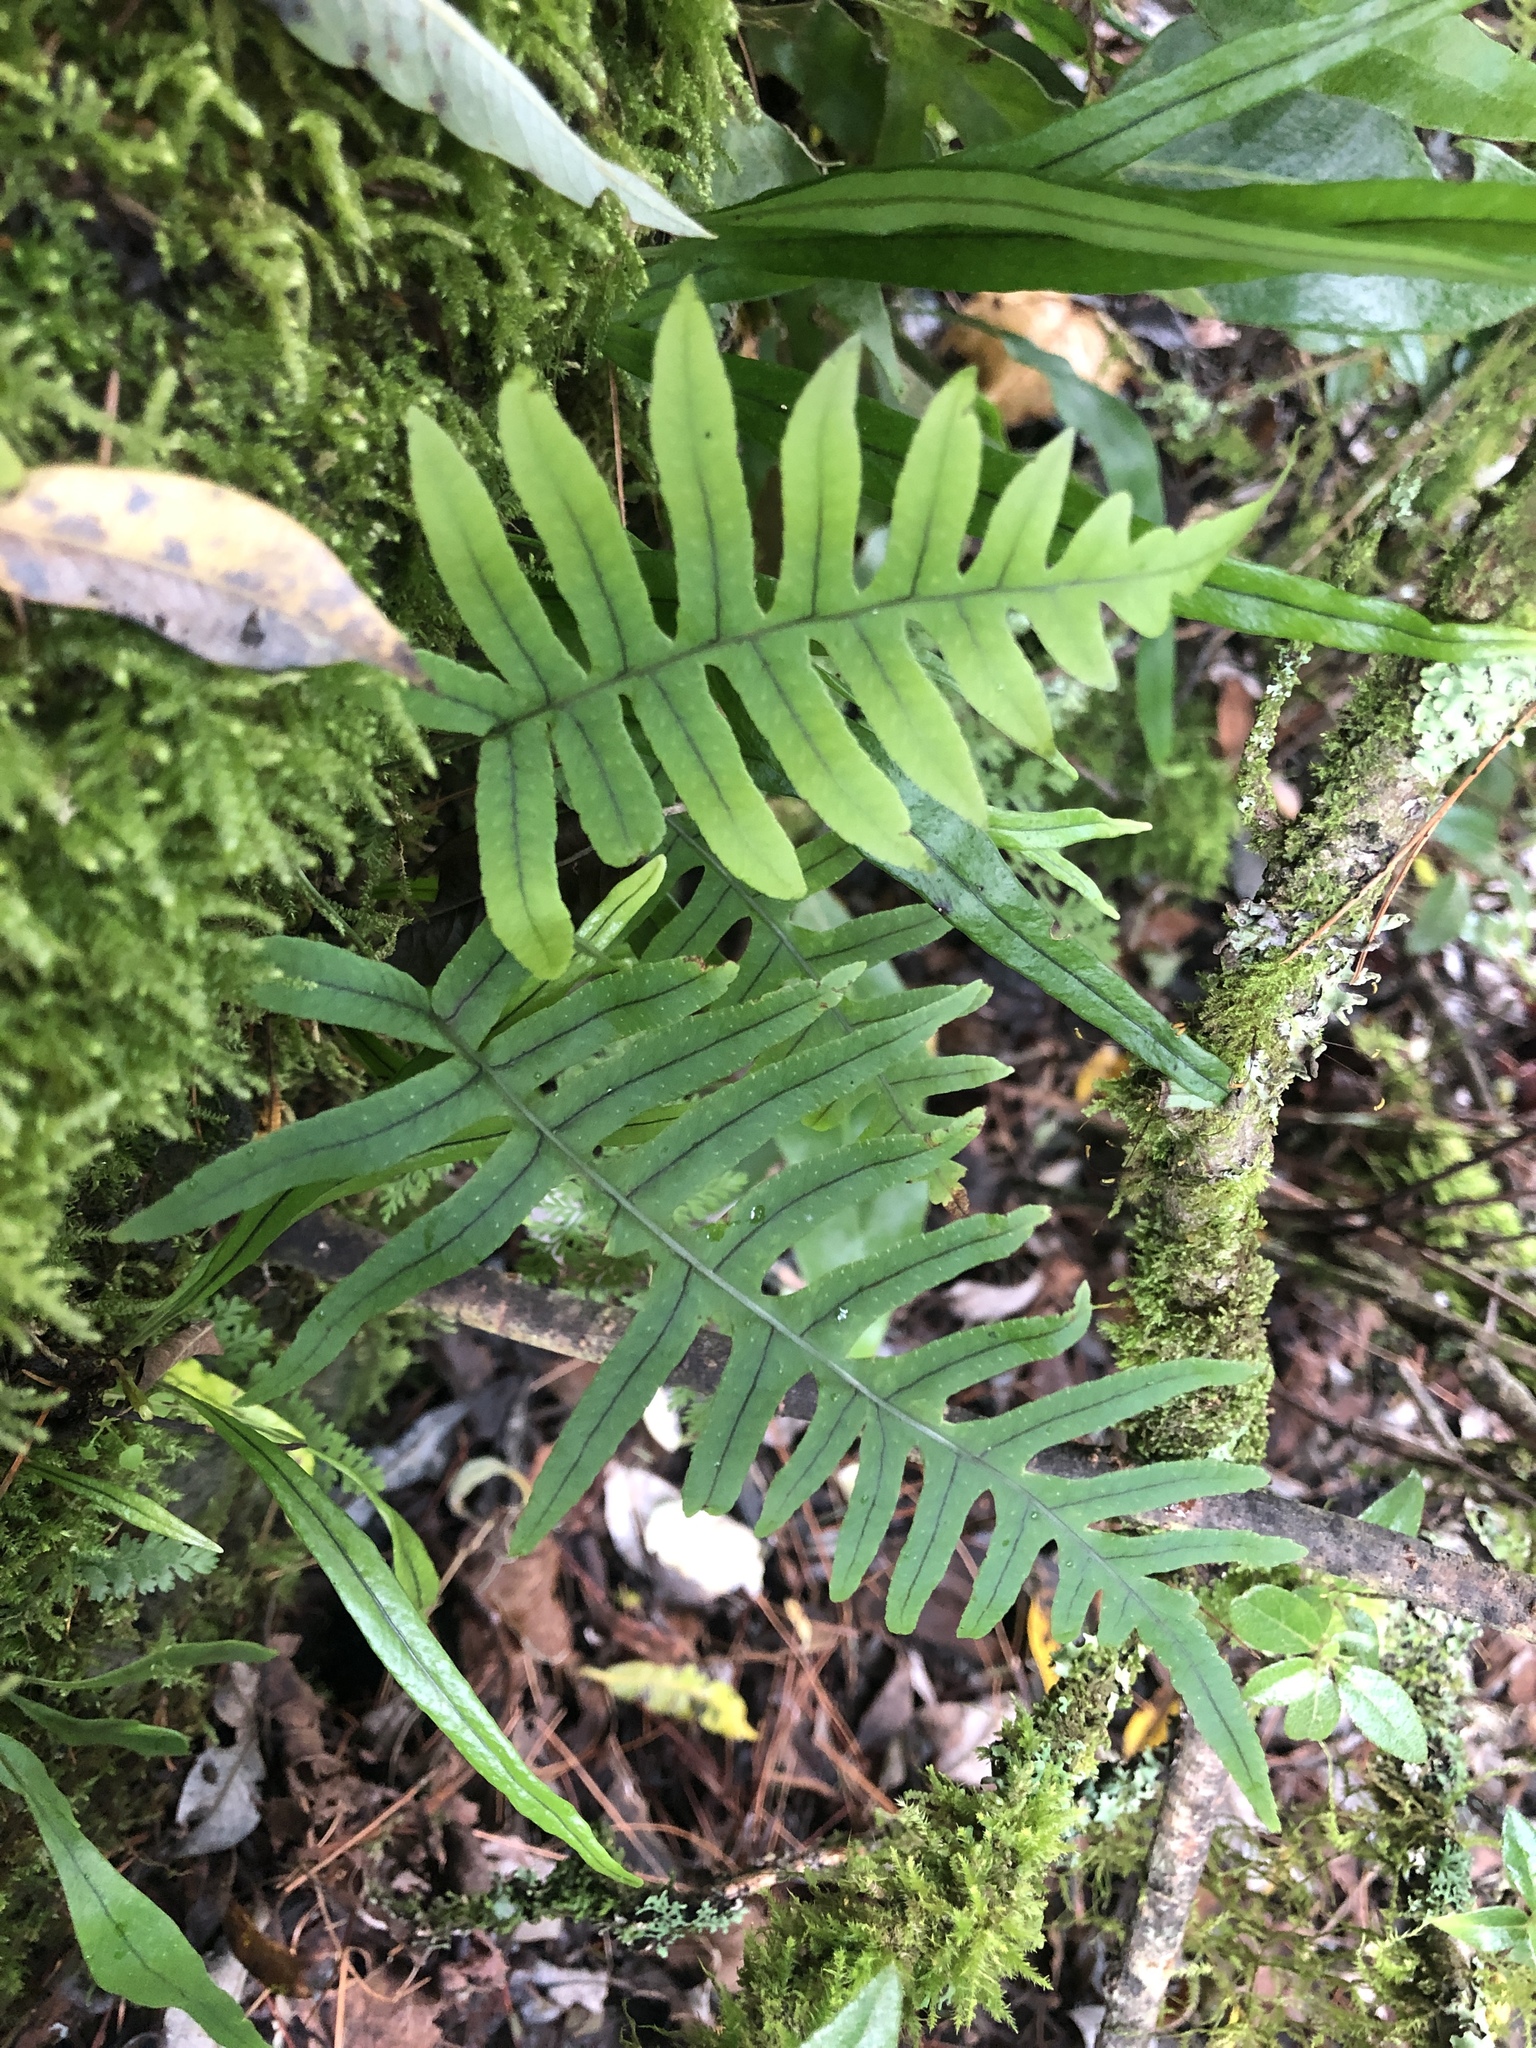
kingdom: Plantae
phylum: Tracheophyta
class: Polypodiopsida
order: Polypodiales
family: Polypodiaceae
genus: Goniophlebium
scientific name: Goniophlebium amoenum
